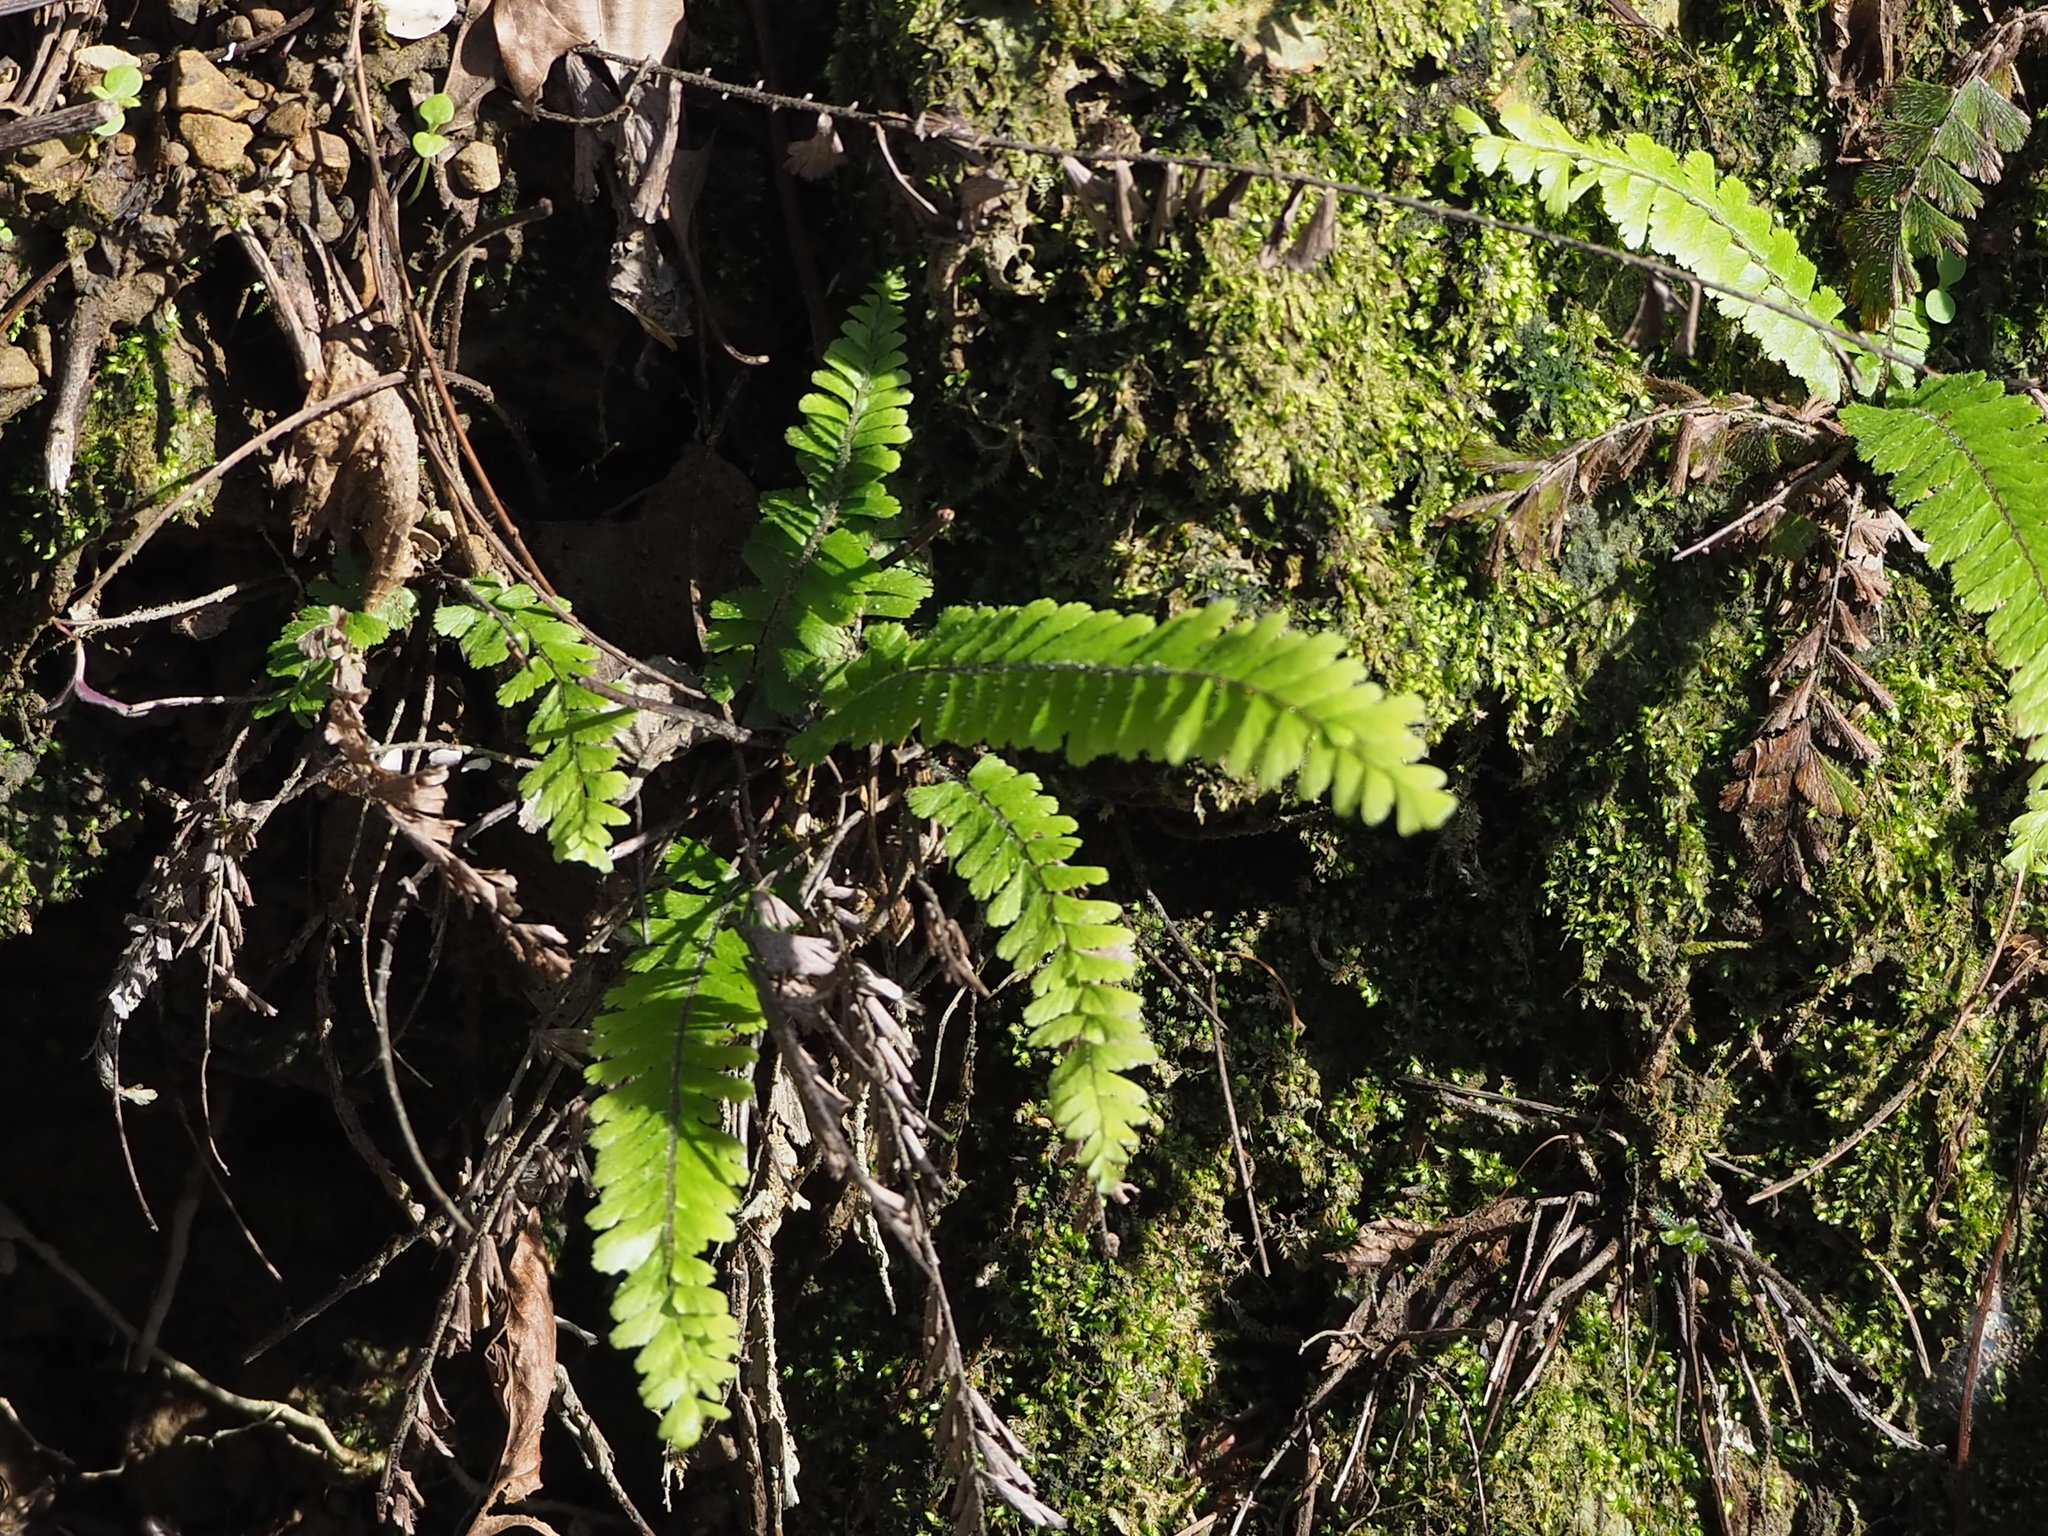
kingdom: Plantae
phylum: Tracheophyta
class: Polypodiopsida
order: Polypodiales
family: Pteridaceae
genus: Adiantum
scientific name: Adiantum caudatum
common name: Tailed maidenhair
